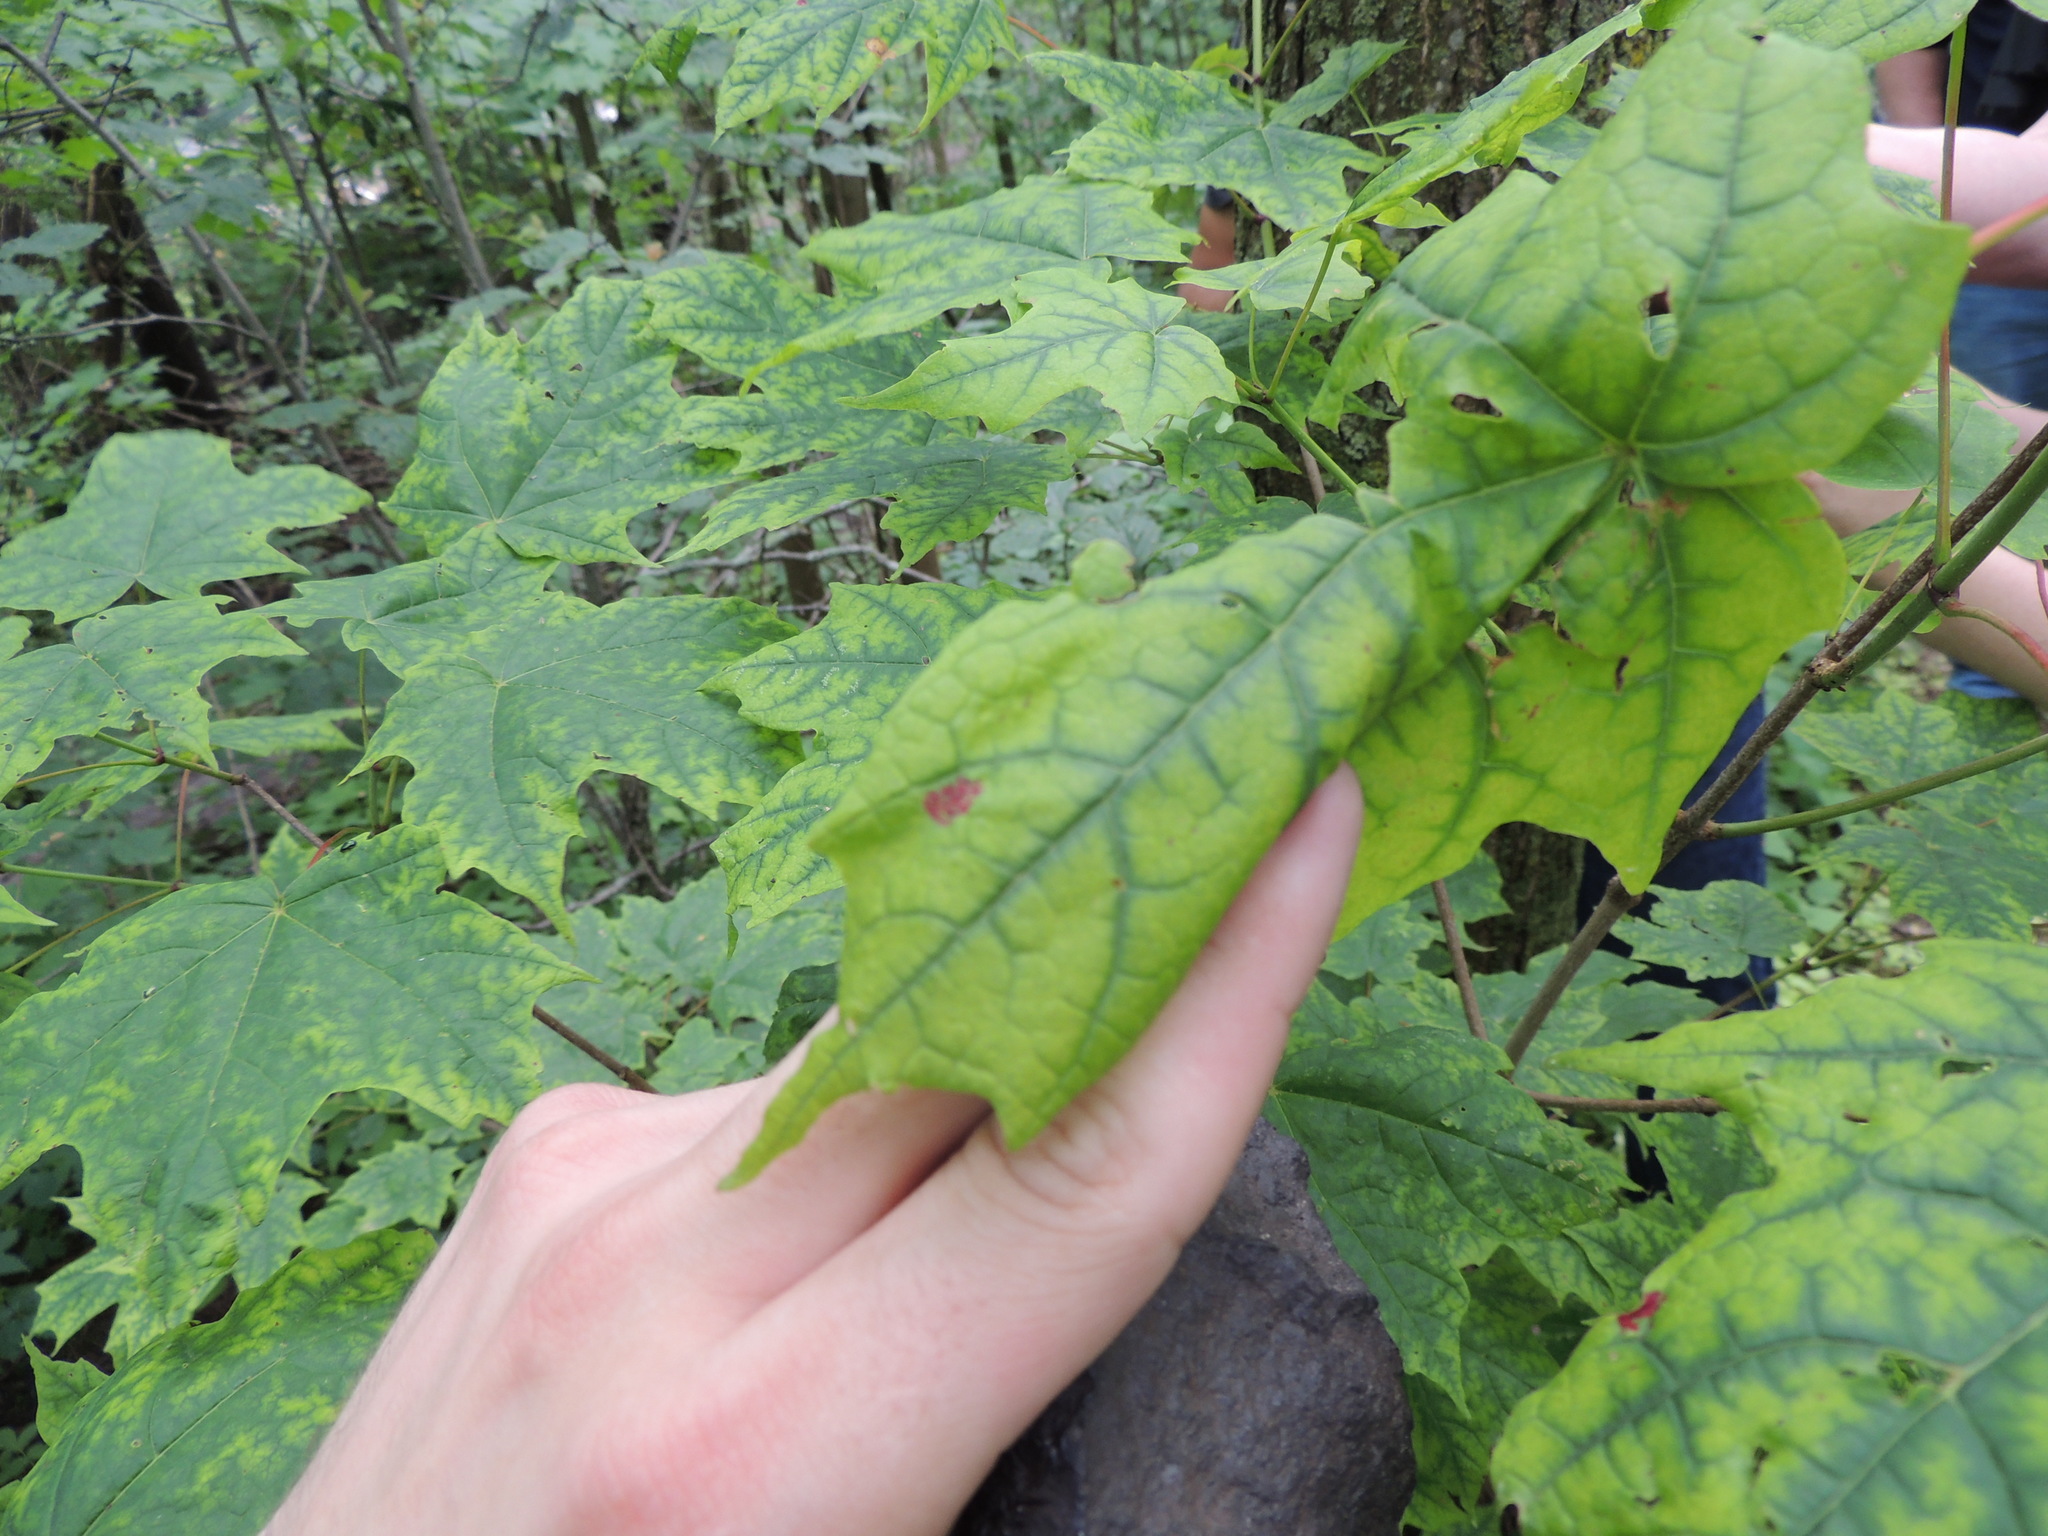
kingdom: Animalia
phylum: Arthropoda
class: Arachnida
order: Trombidiformes
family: Eriophyidae
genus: Aceria
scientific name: Aceria
